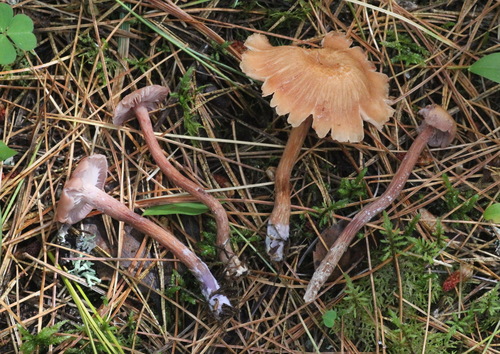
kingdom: Fungi
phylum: Basidiomycota
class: Agaricomycetes
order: Agaricales
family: Hydnangiaceae
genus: Laccaria
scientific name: Laccaria bicolor
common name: Bicoloured deceiver
